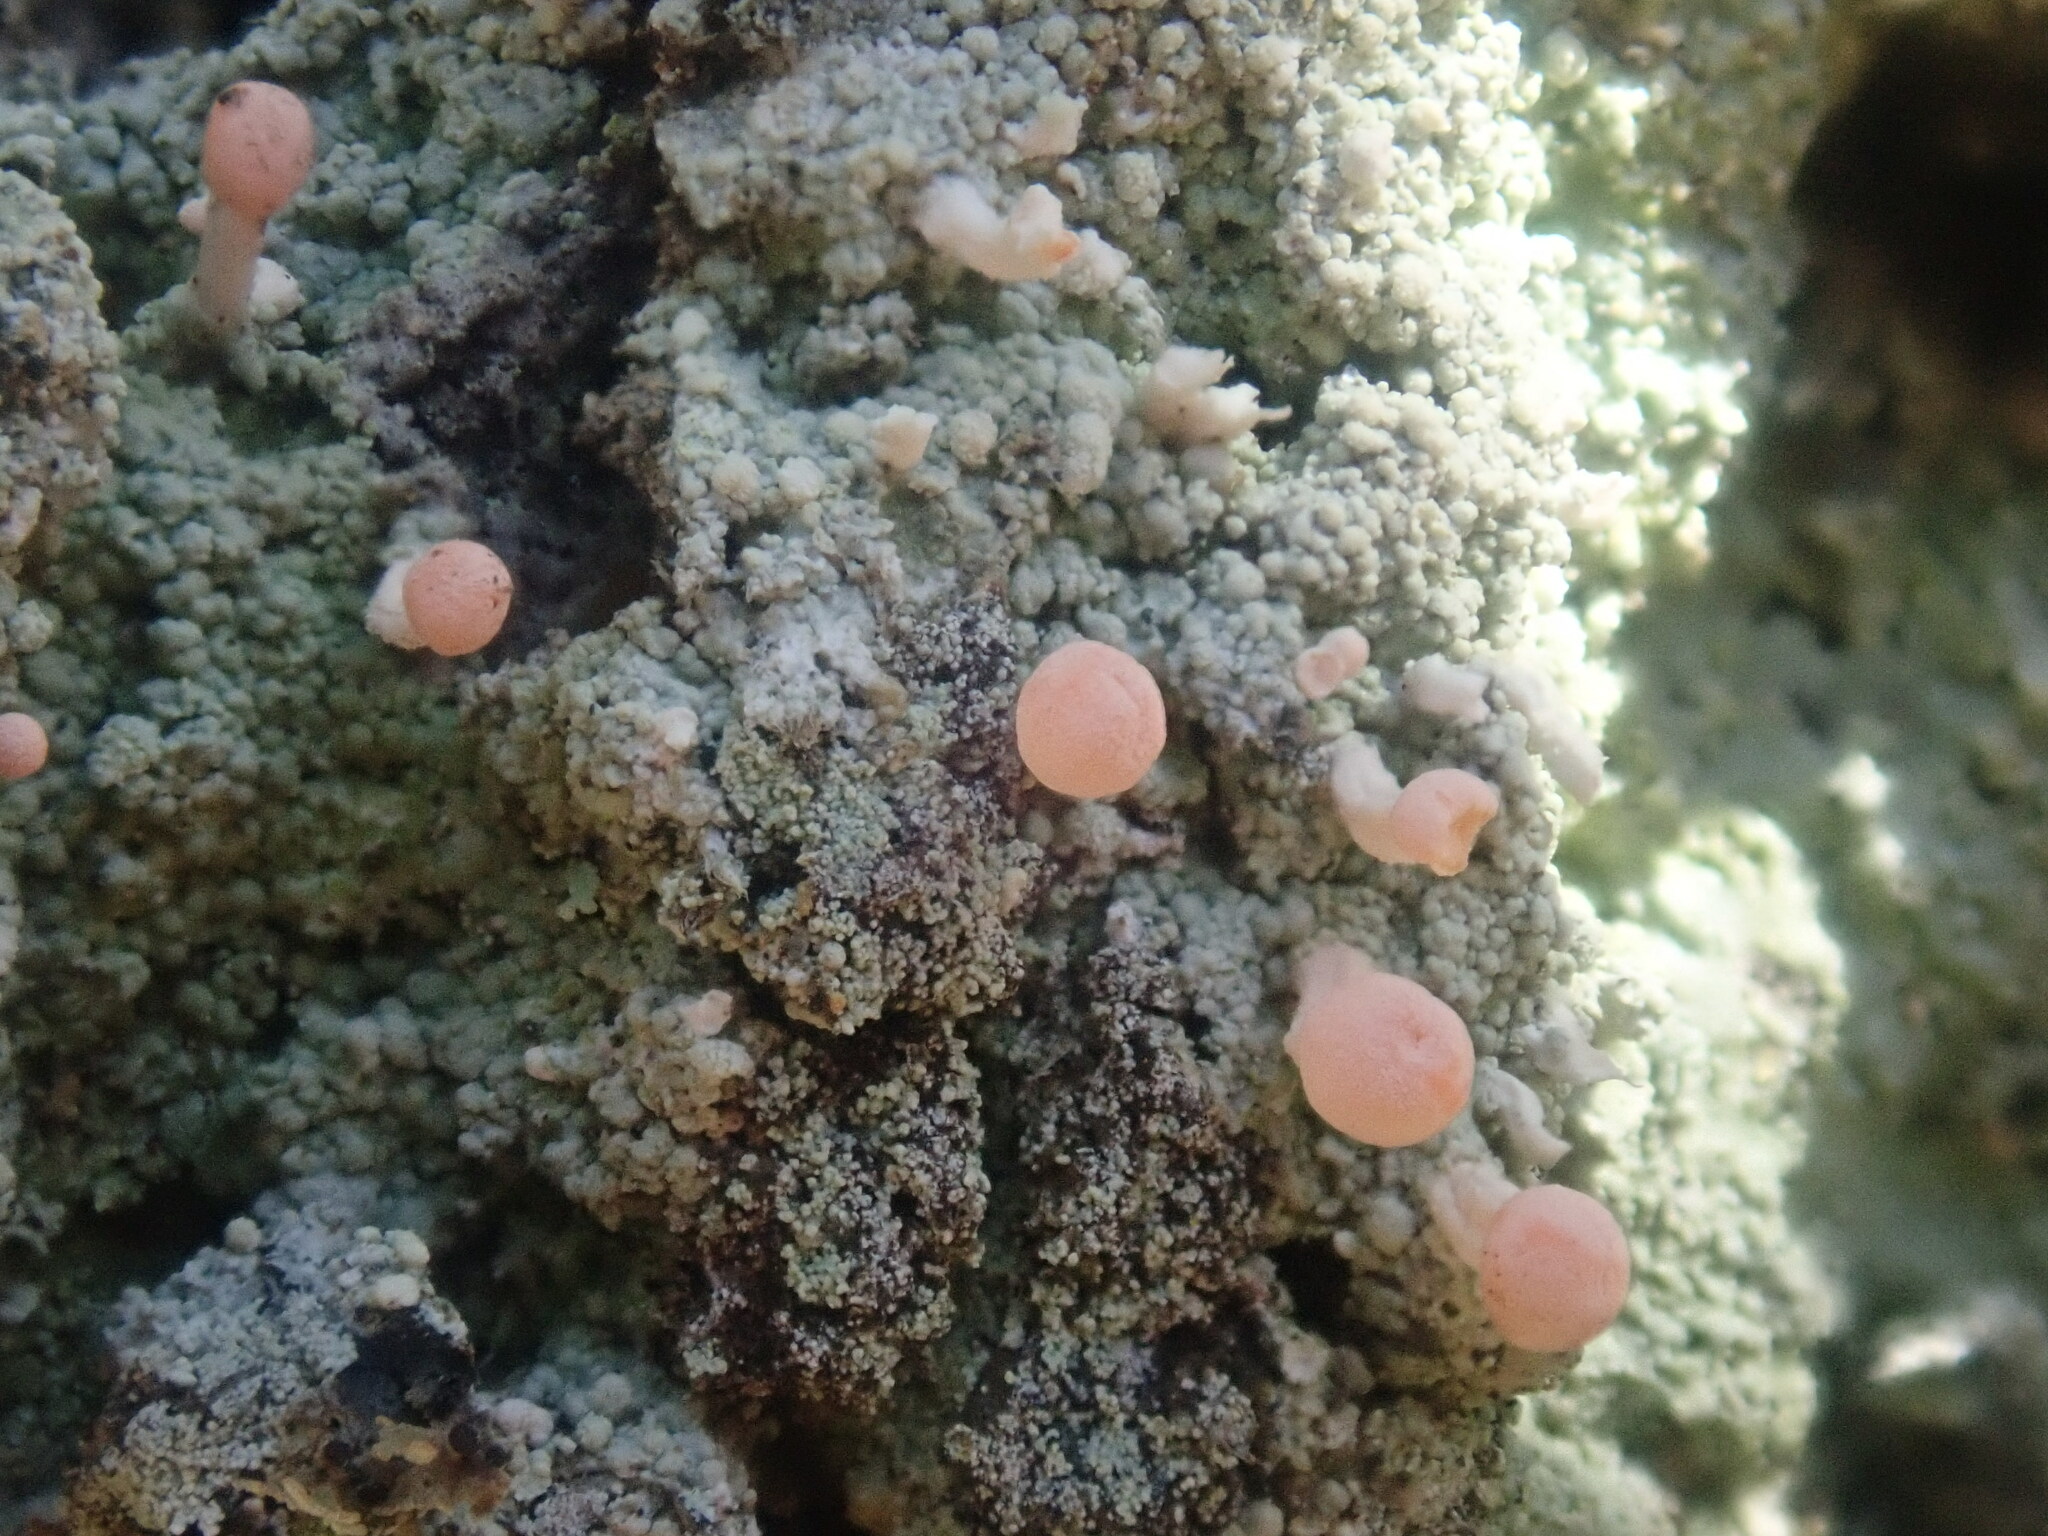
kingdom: Fungi
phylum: Ascomycota
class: Lecanoromycetes
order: Pertusariales
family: Icmadophilaceae
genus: Dibaeis
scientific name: Dibaeis baeomyces
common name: Pink earth lichen
